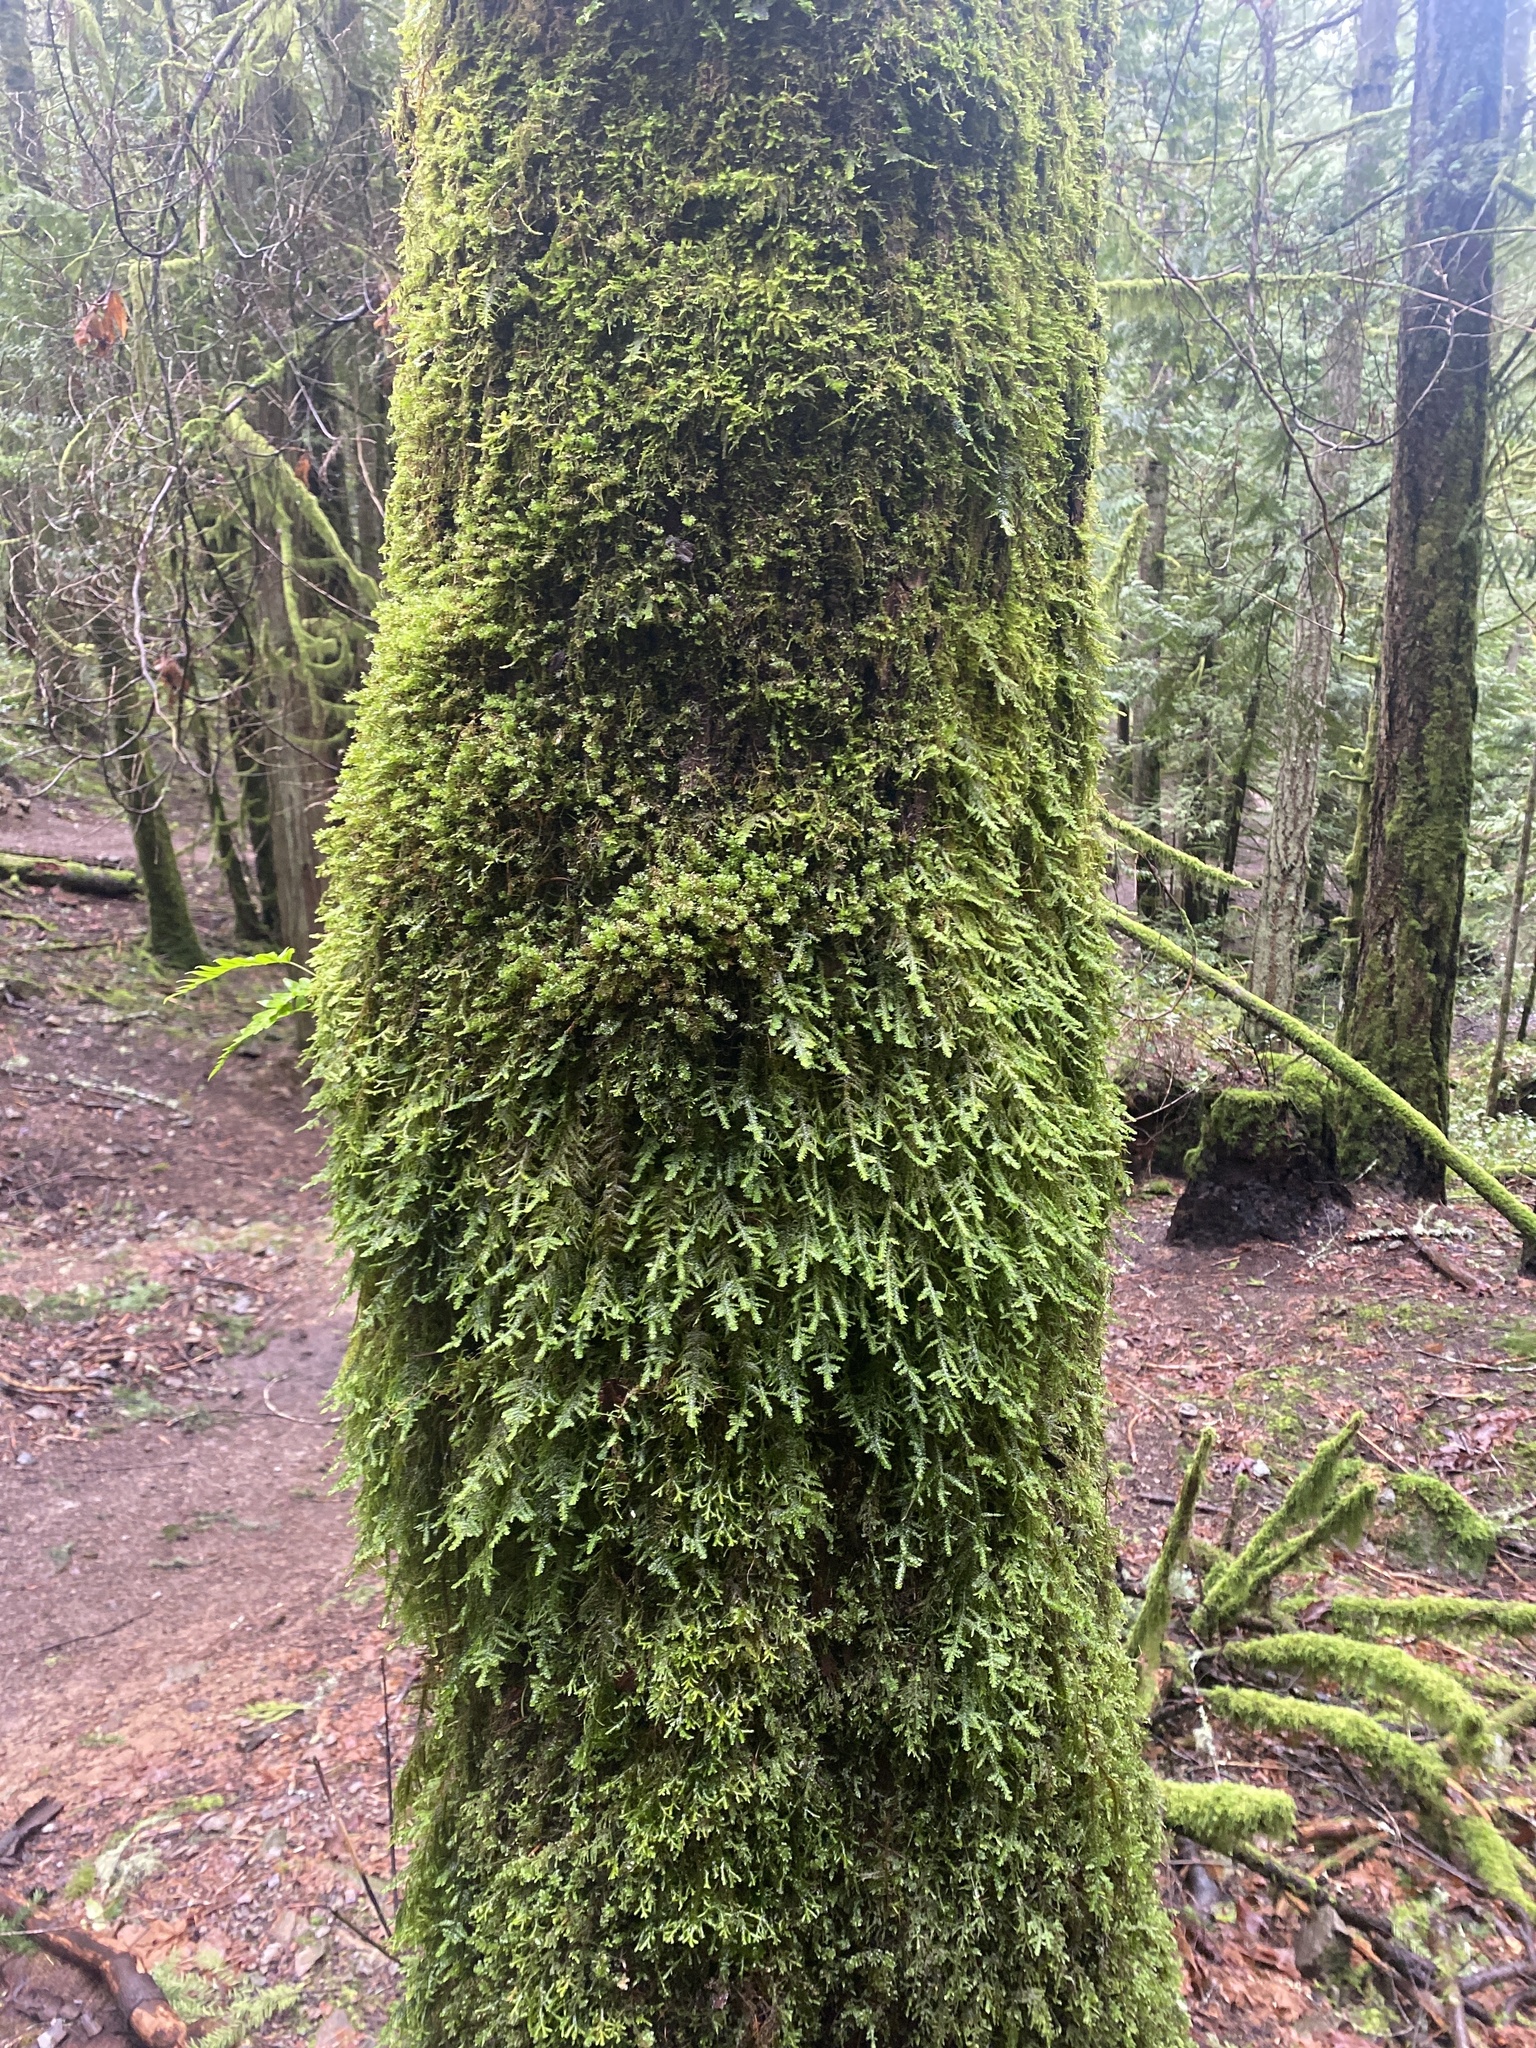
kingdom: Plantae
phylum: Bryophyta
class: Bryopsida
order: Hypnales
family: Neckeraceae
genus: Metaneckera
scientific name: Metaneckera menziesii
